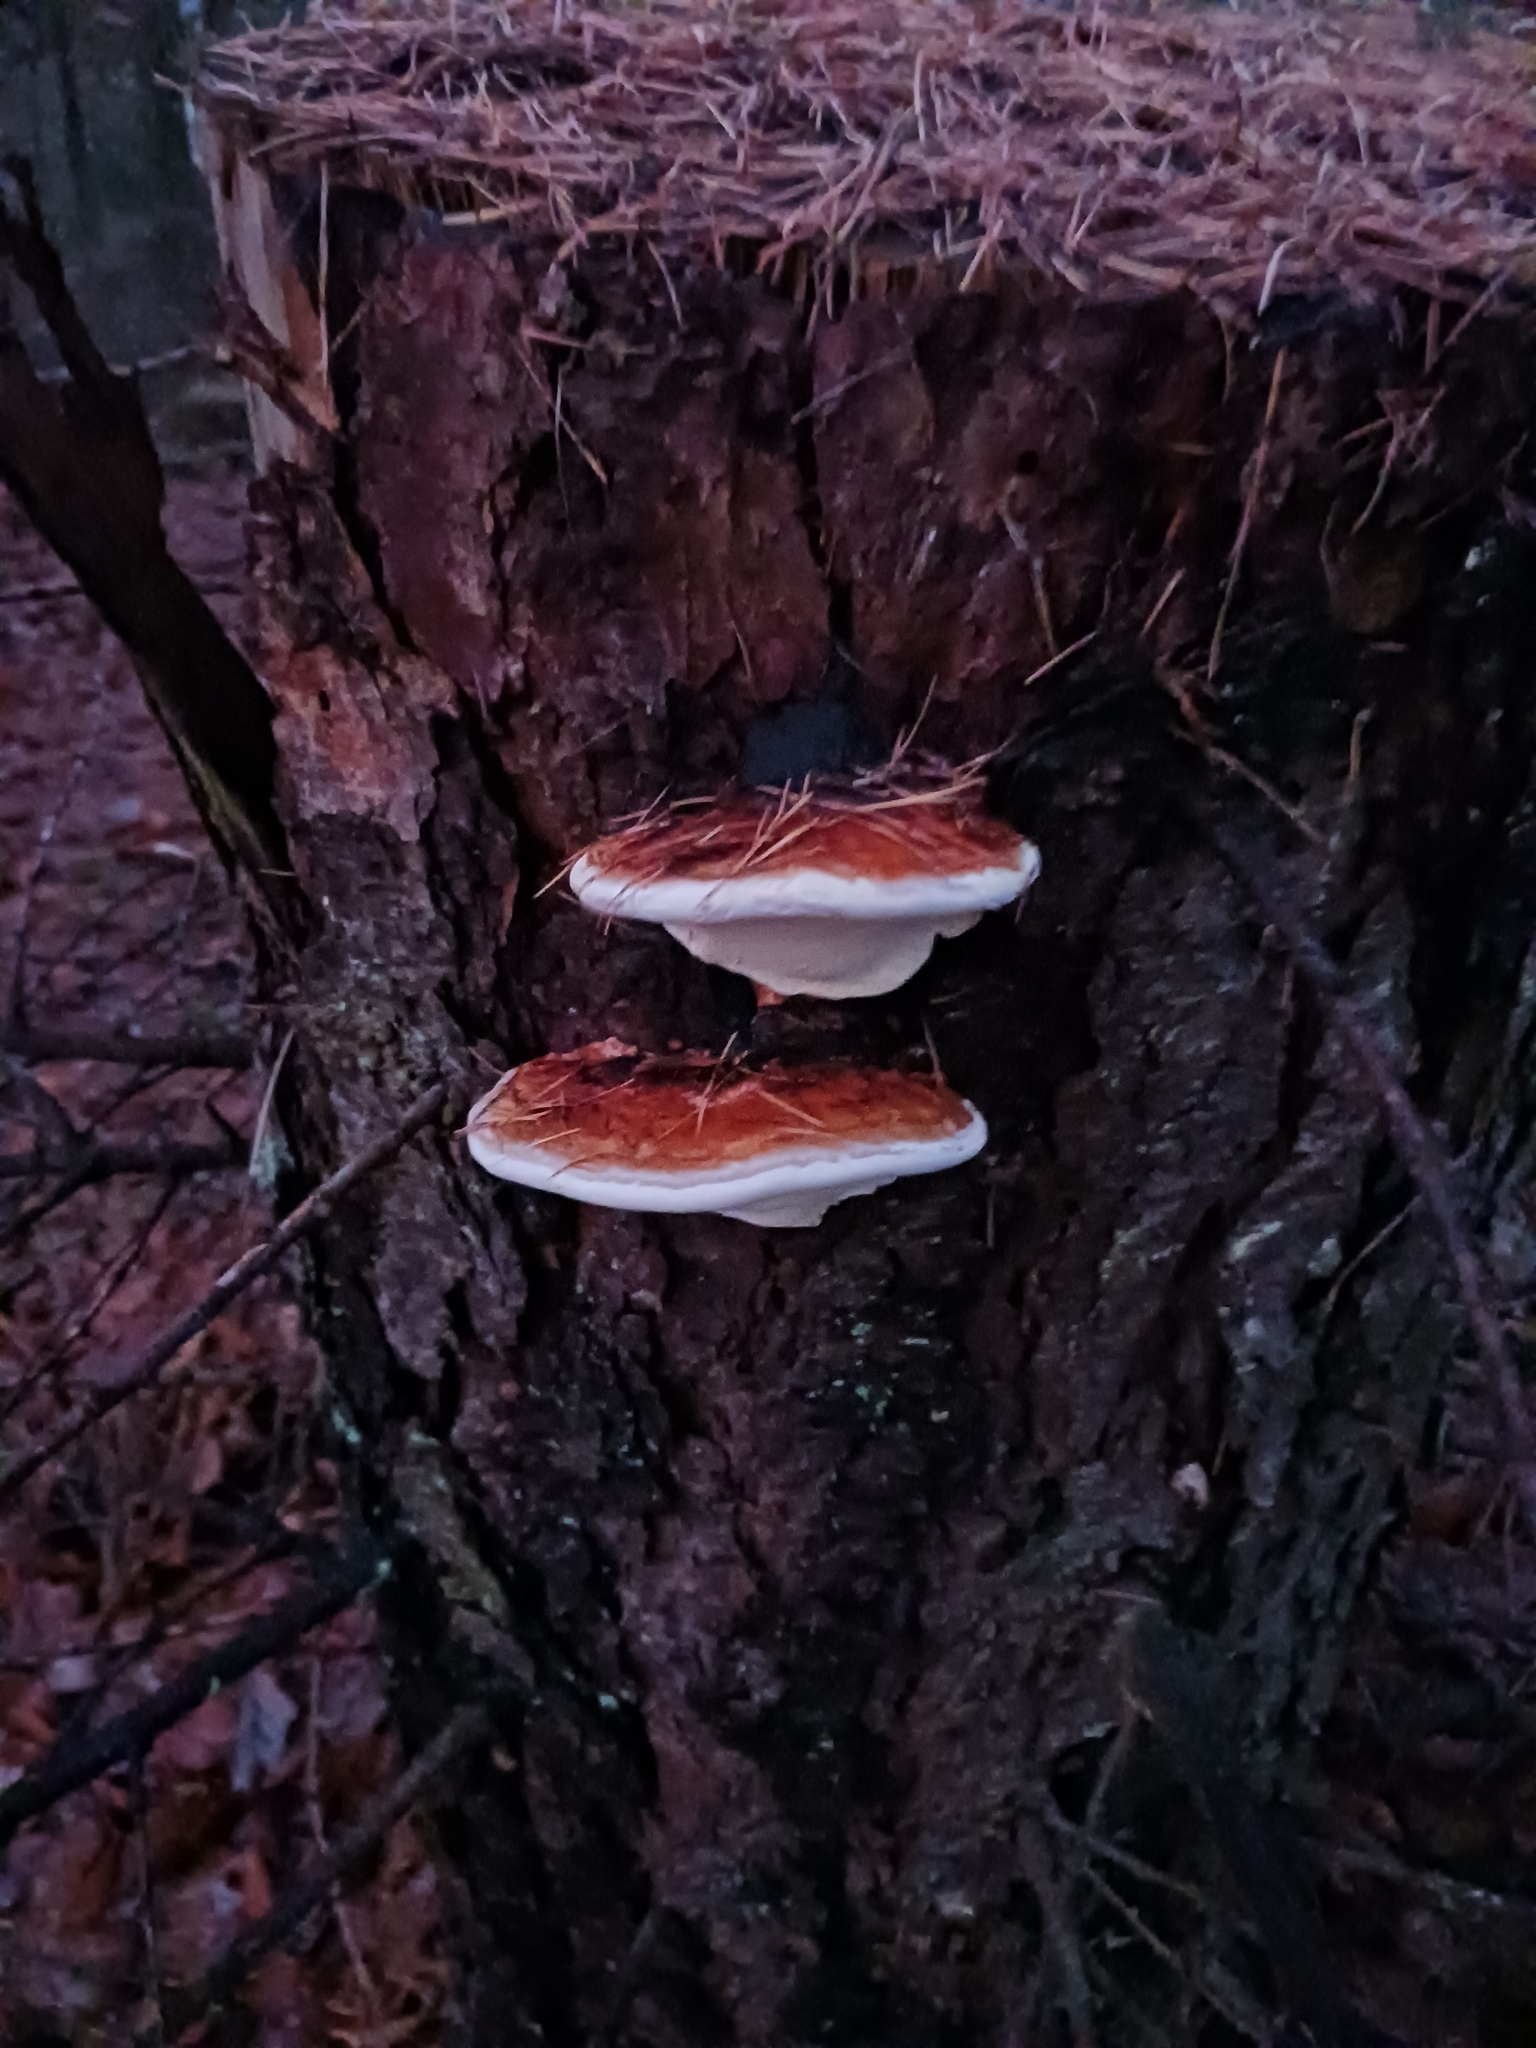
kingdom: Fungi
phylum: Basidiomycota
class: Agaricomycetes
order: Polyporales
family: Fomitopsidaceae
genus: Fomitopsis
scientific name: Fomitopsis pinicola
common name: Red-belted bracket
